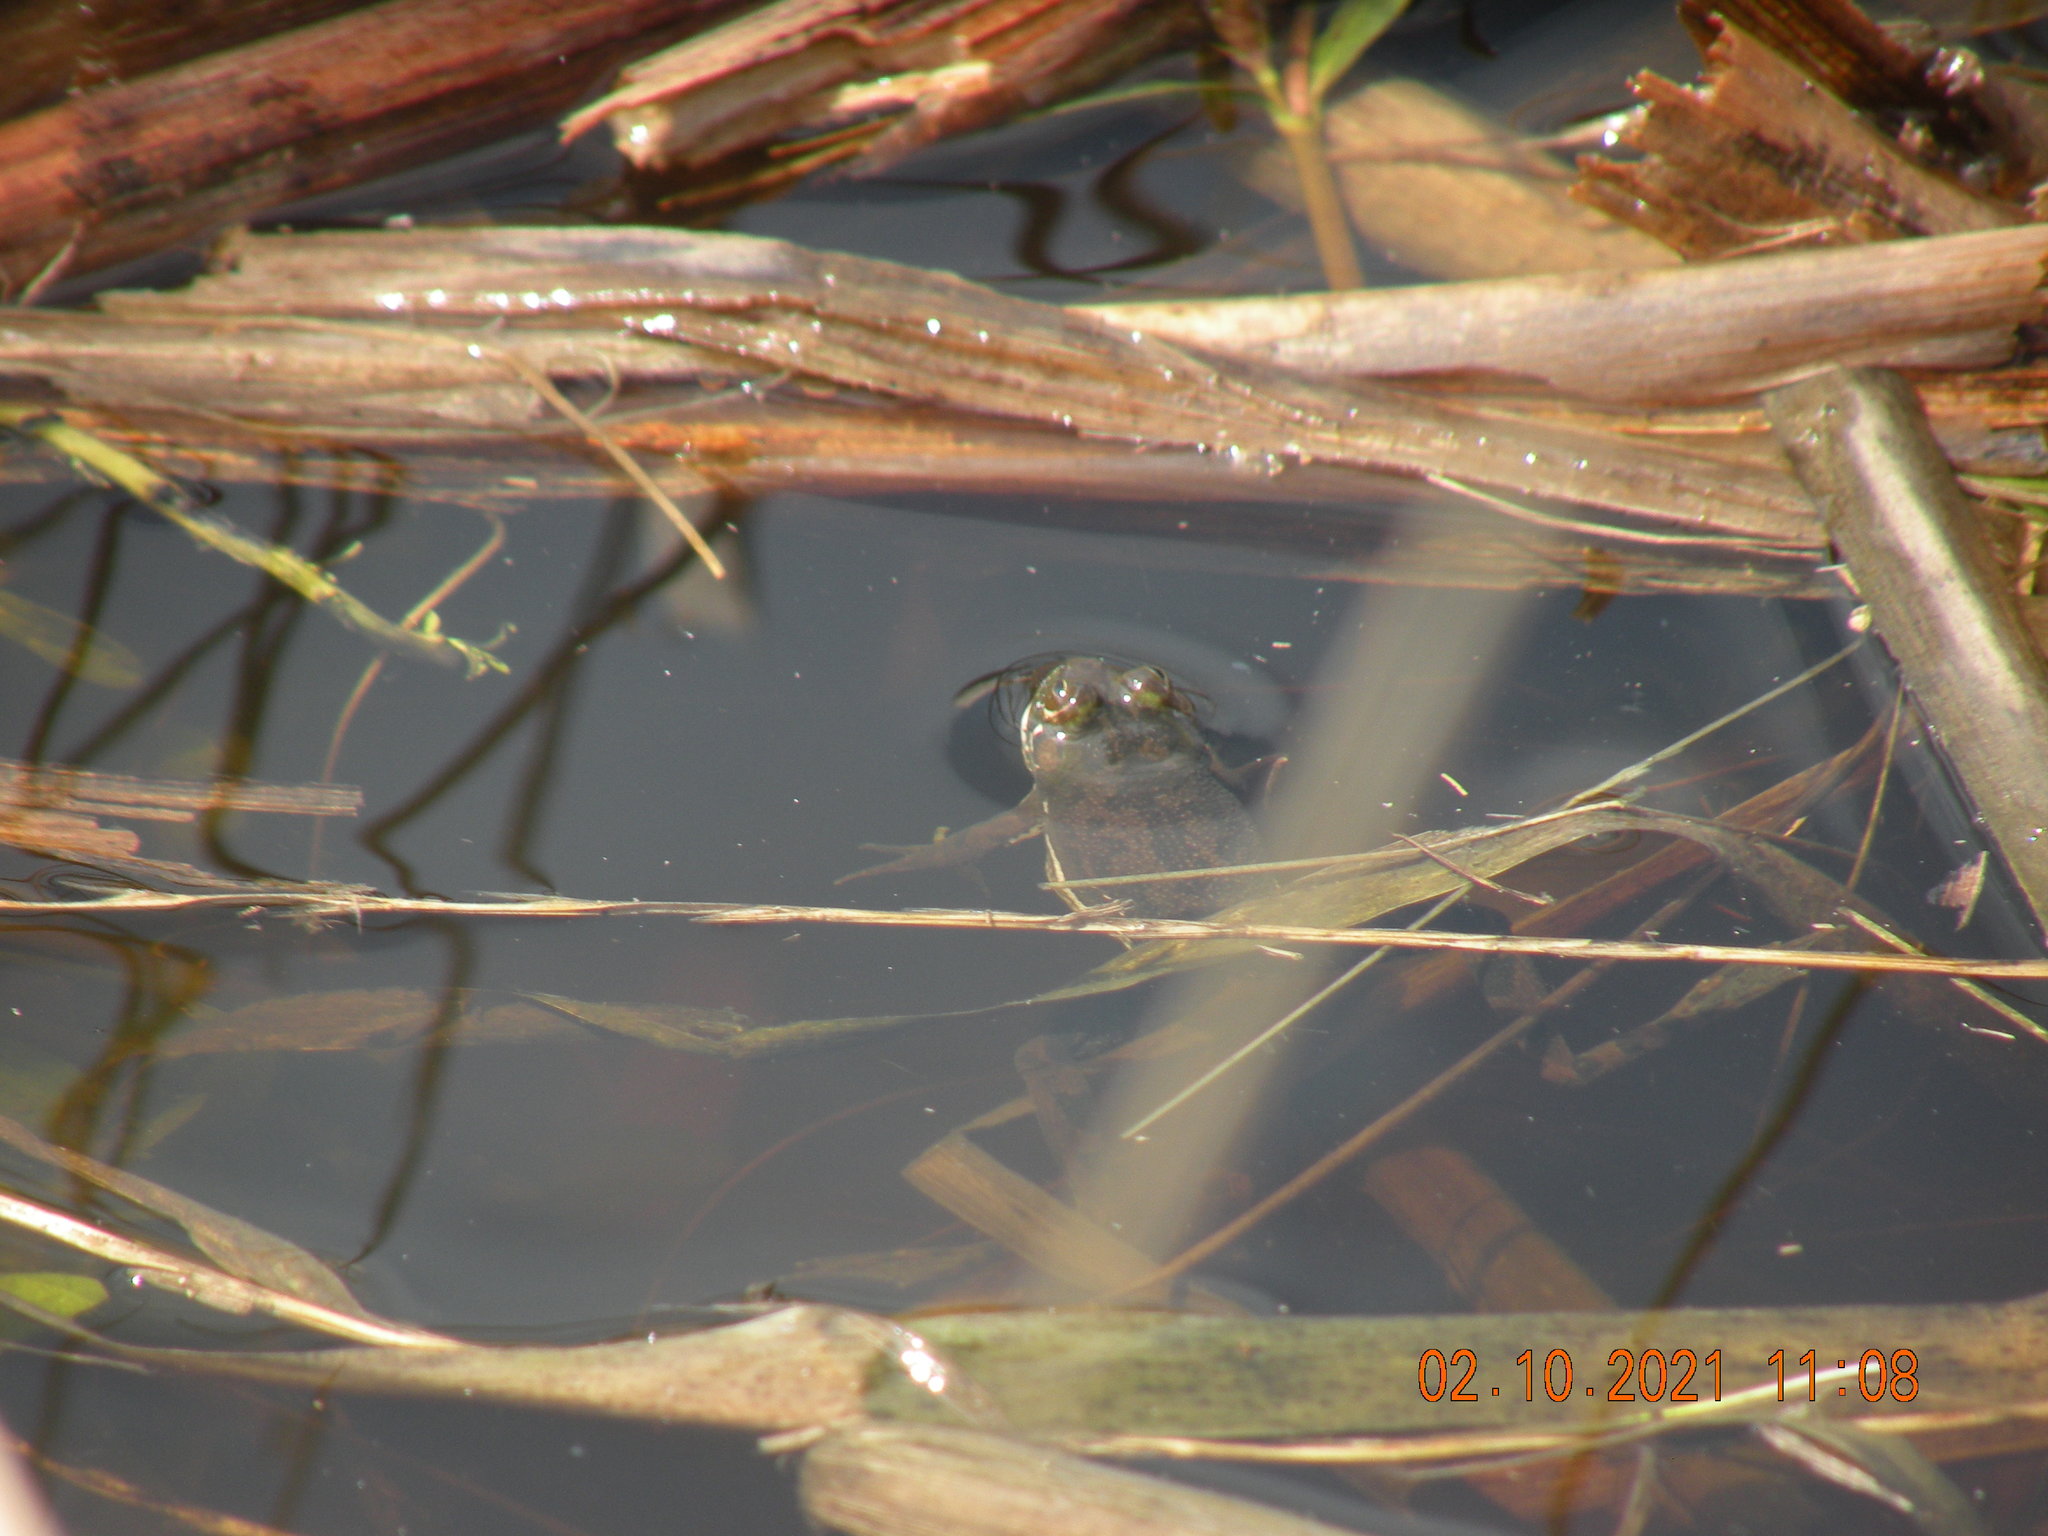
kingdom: Animalia
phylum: Chordata
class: Amphibia
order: Anura
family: Hylidae
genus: Pseudis
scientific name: Pseudis minuta
